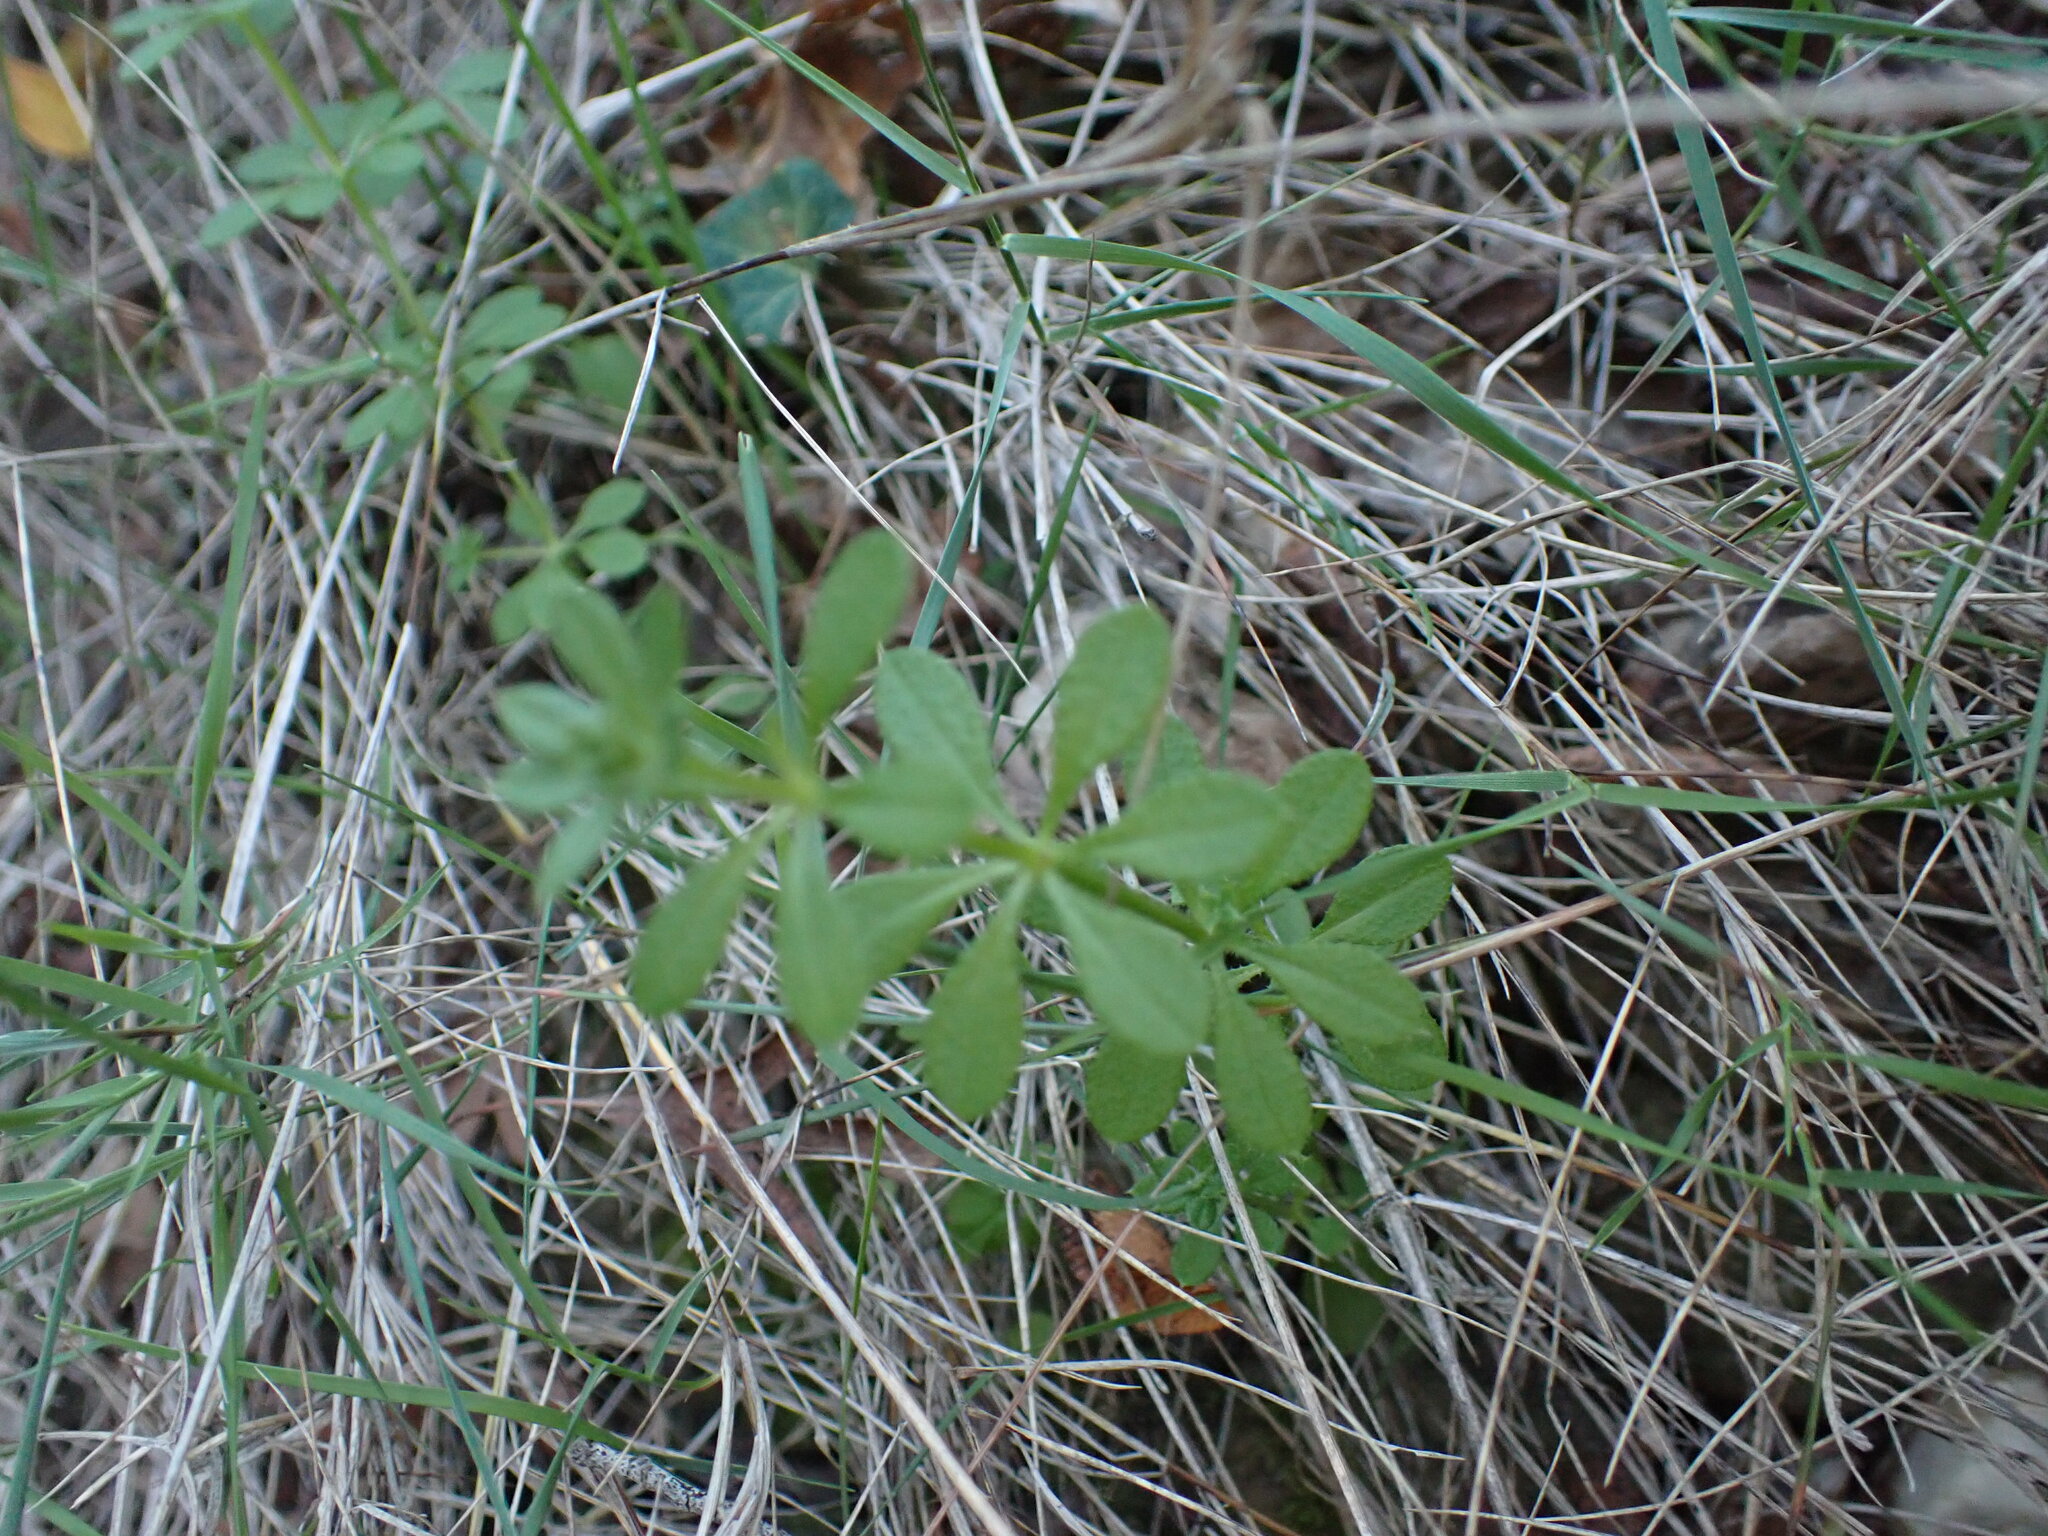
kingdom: Plantae
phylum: Tracheophyta
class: Magnoliopsida
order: Gentianales
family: Rubiaceae
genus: Galium
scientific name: Galium aparine
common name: Cleavers
